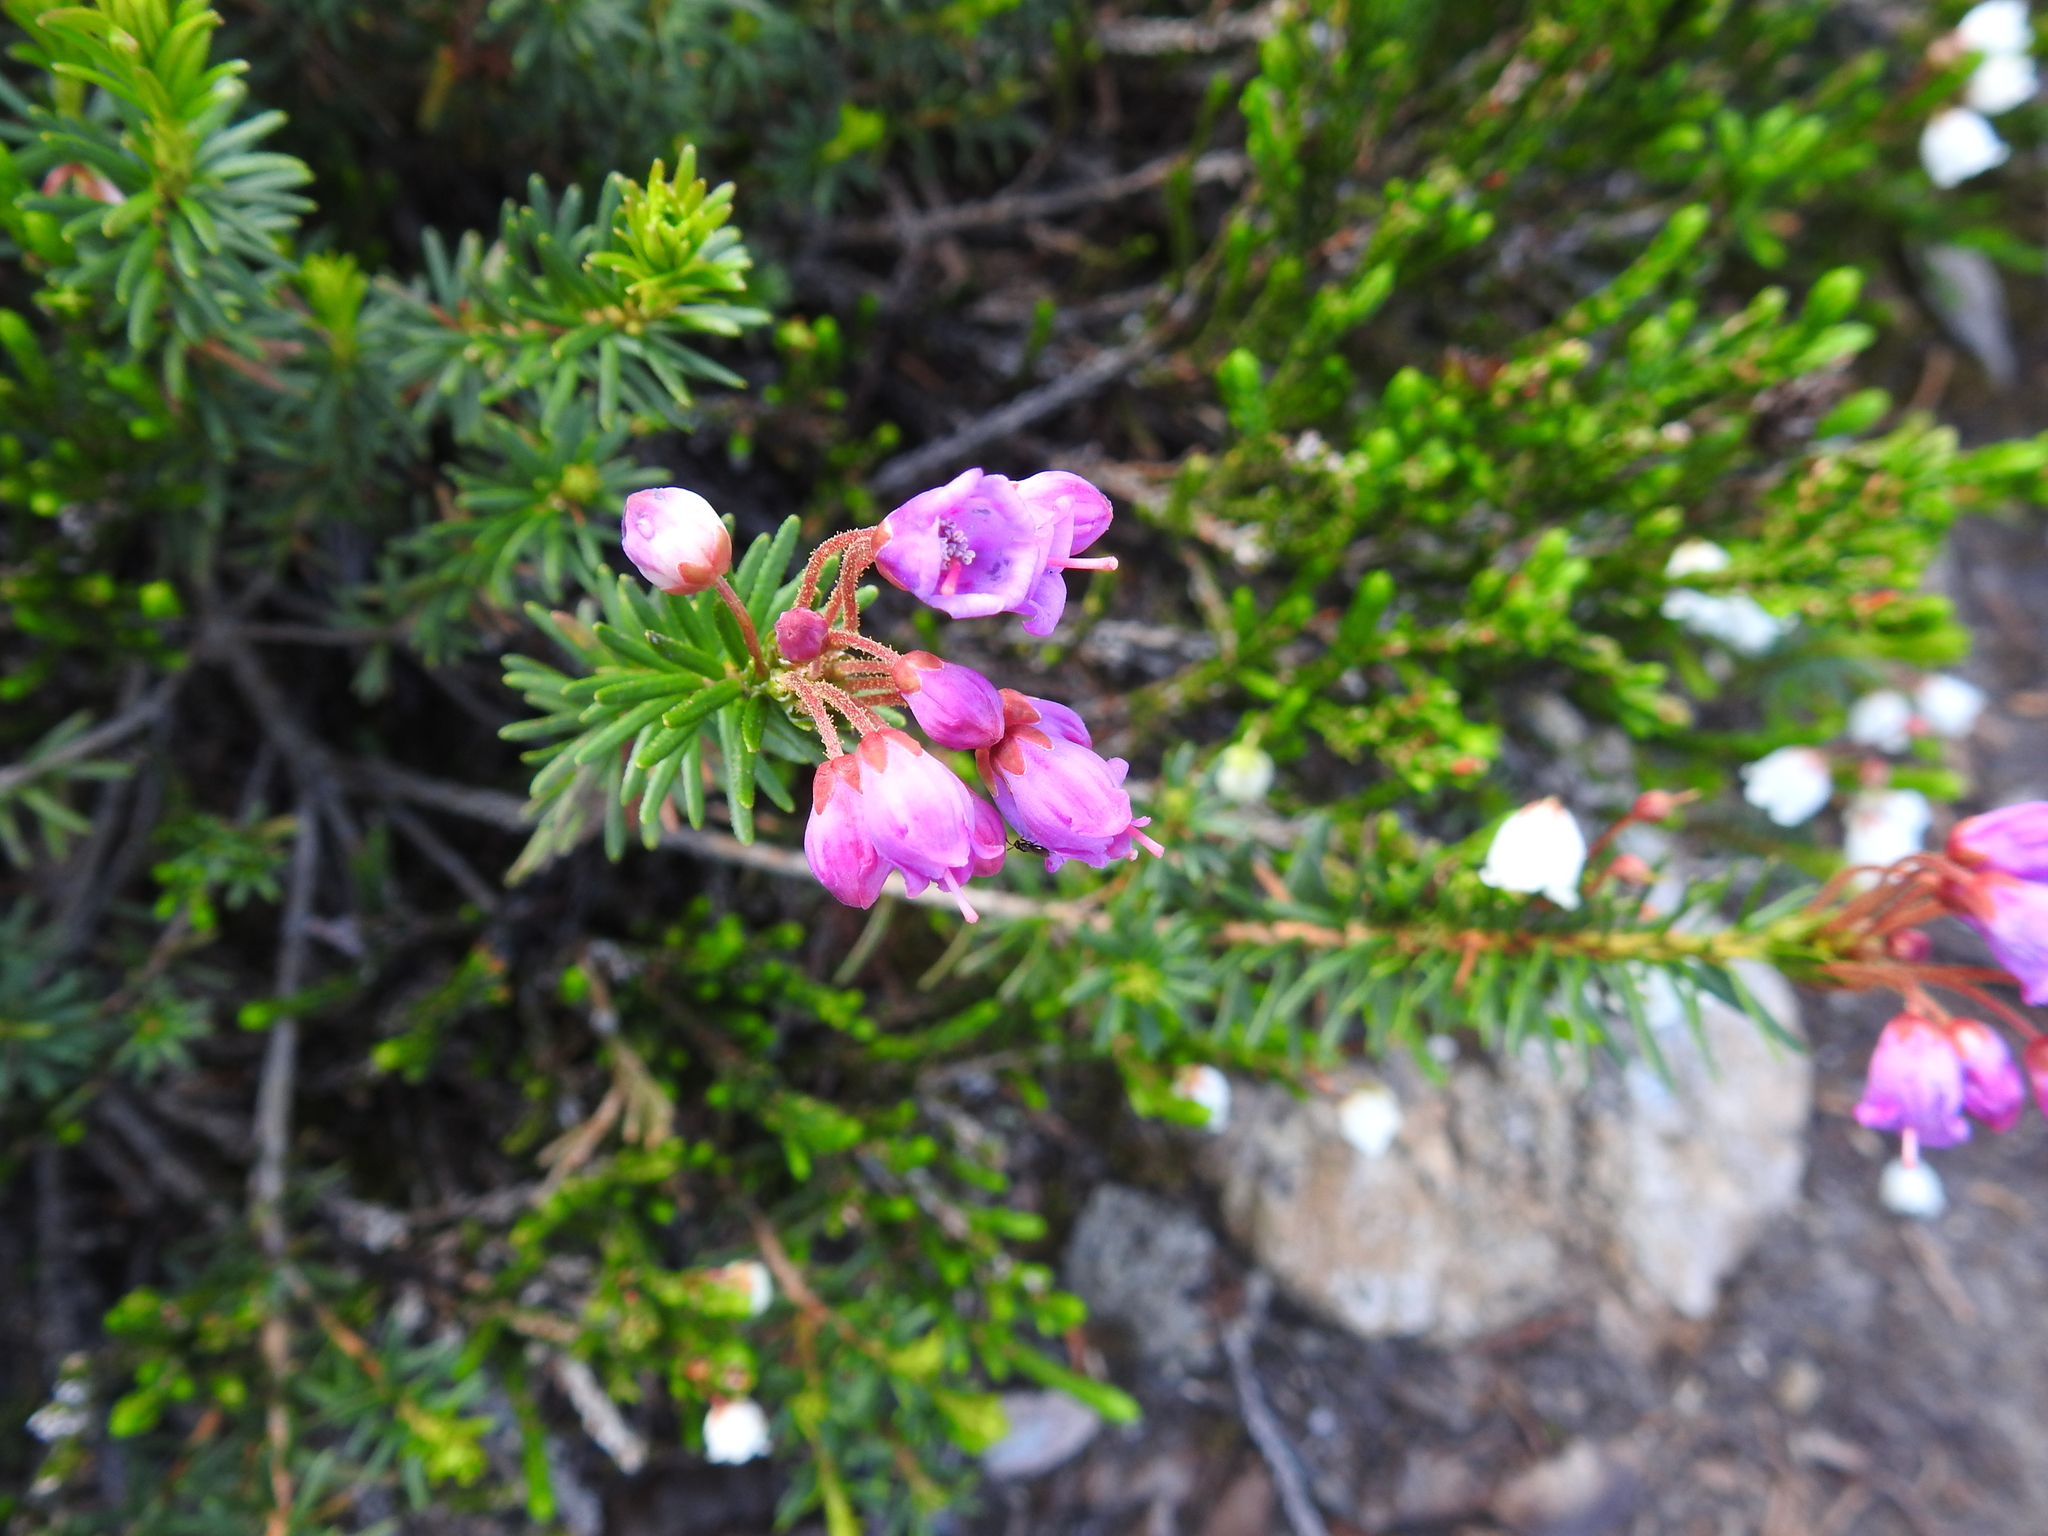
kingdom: Plantae
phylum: Tracheophyta
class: Magnoliopsida
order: Ericales
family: Ericaceae
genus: Phyllodoce
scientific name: Phyllodoce empetriformis
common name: Pink mountain heather
